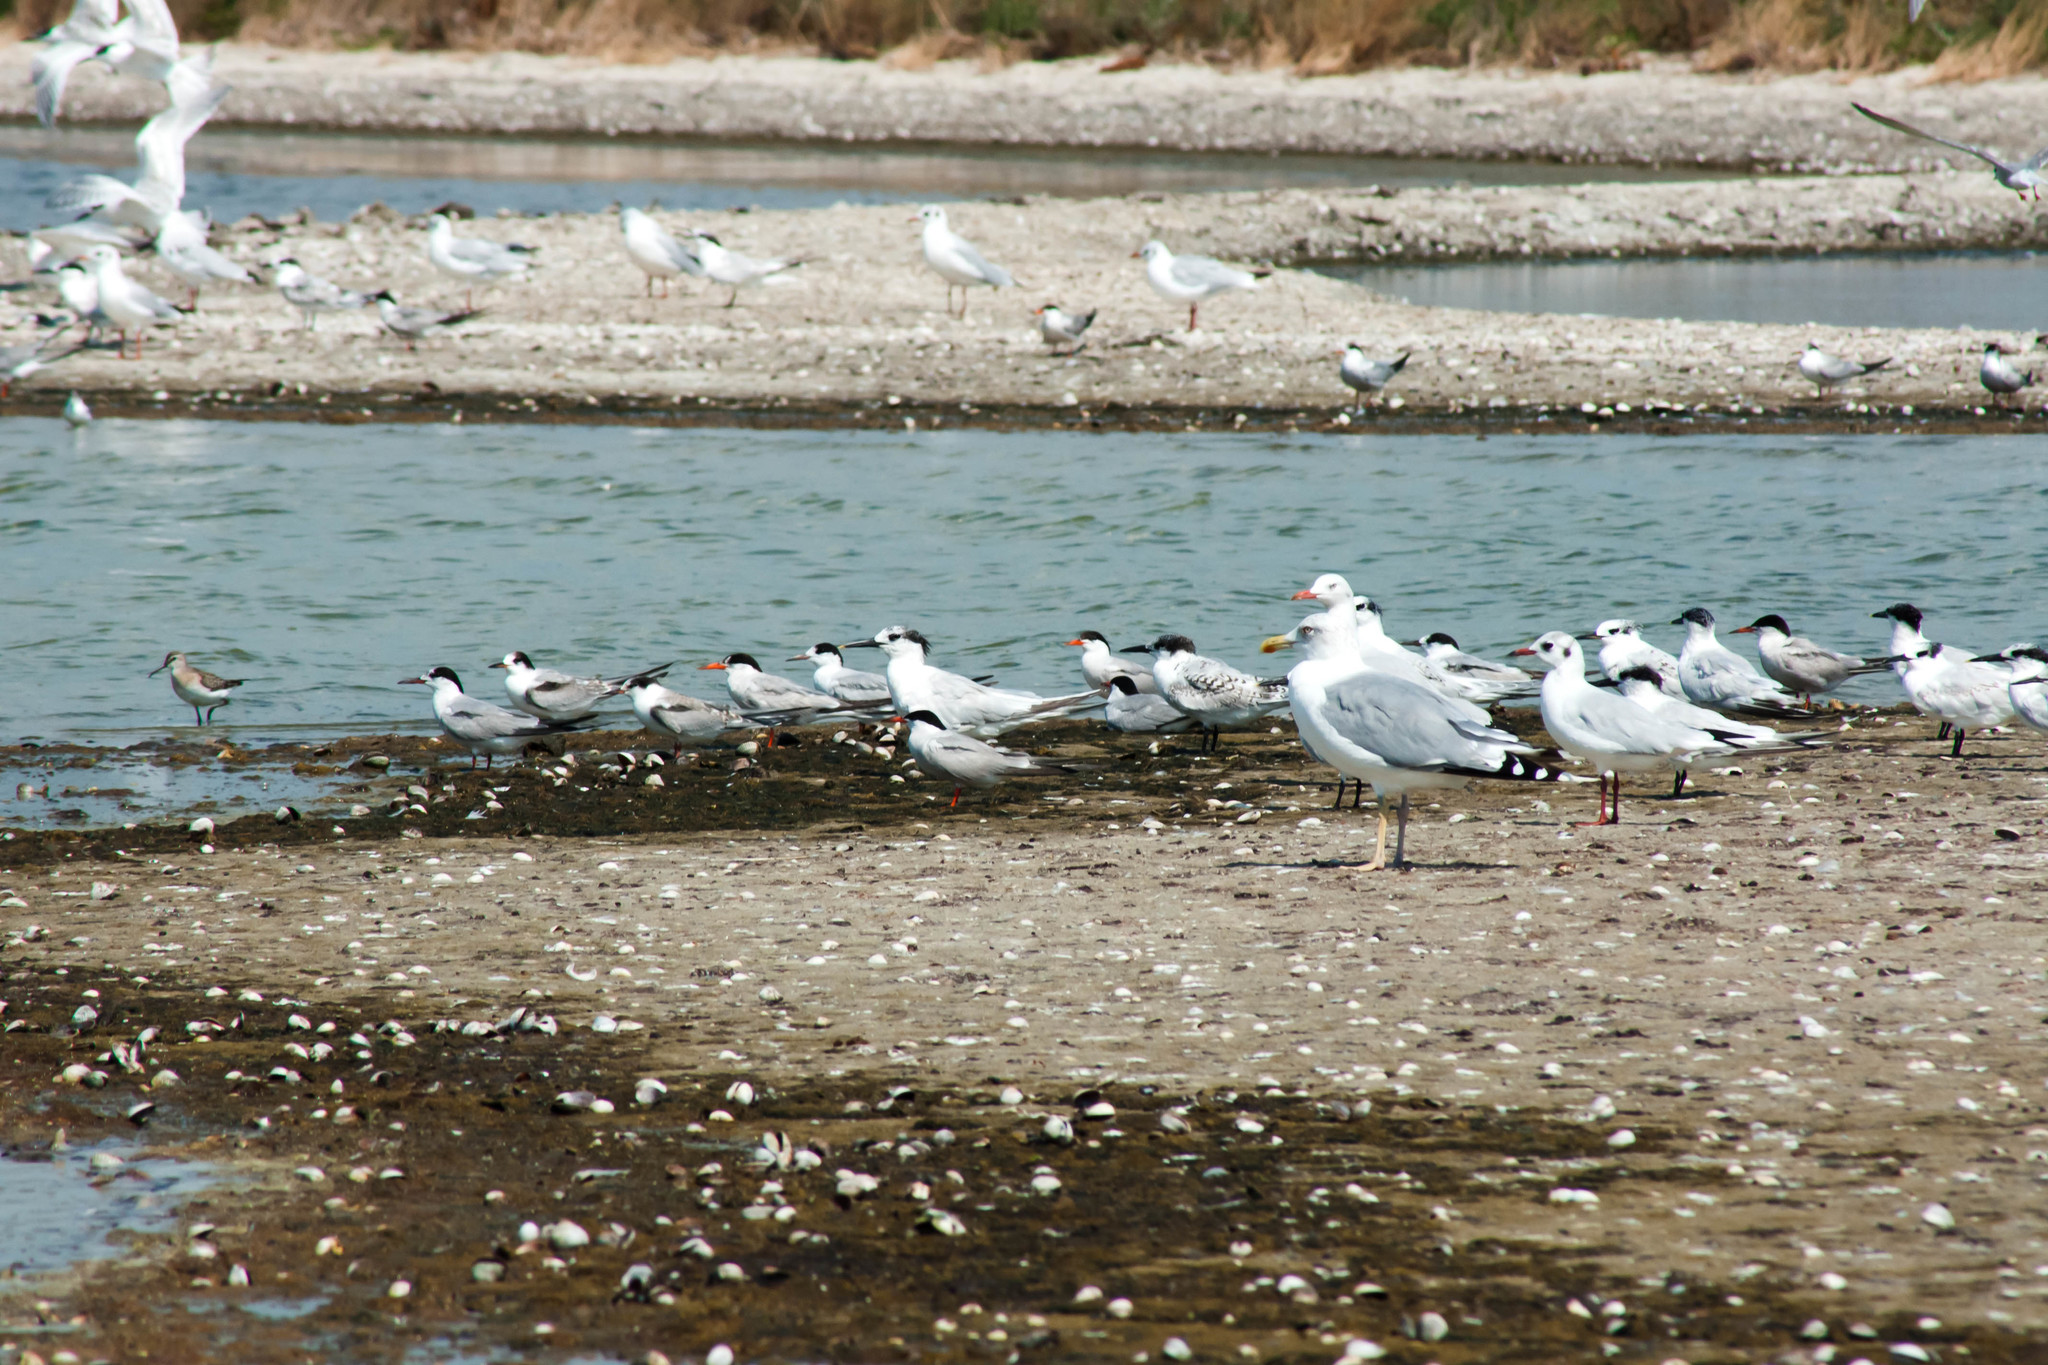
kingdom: Animalia
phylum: Chordata
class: Aves
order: Charadriiformes
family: Laridae
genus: Sterna
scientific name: Sterna hirundo
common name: Common tern
